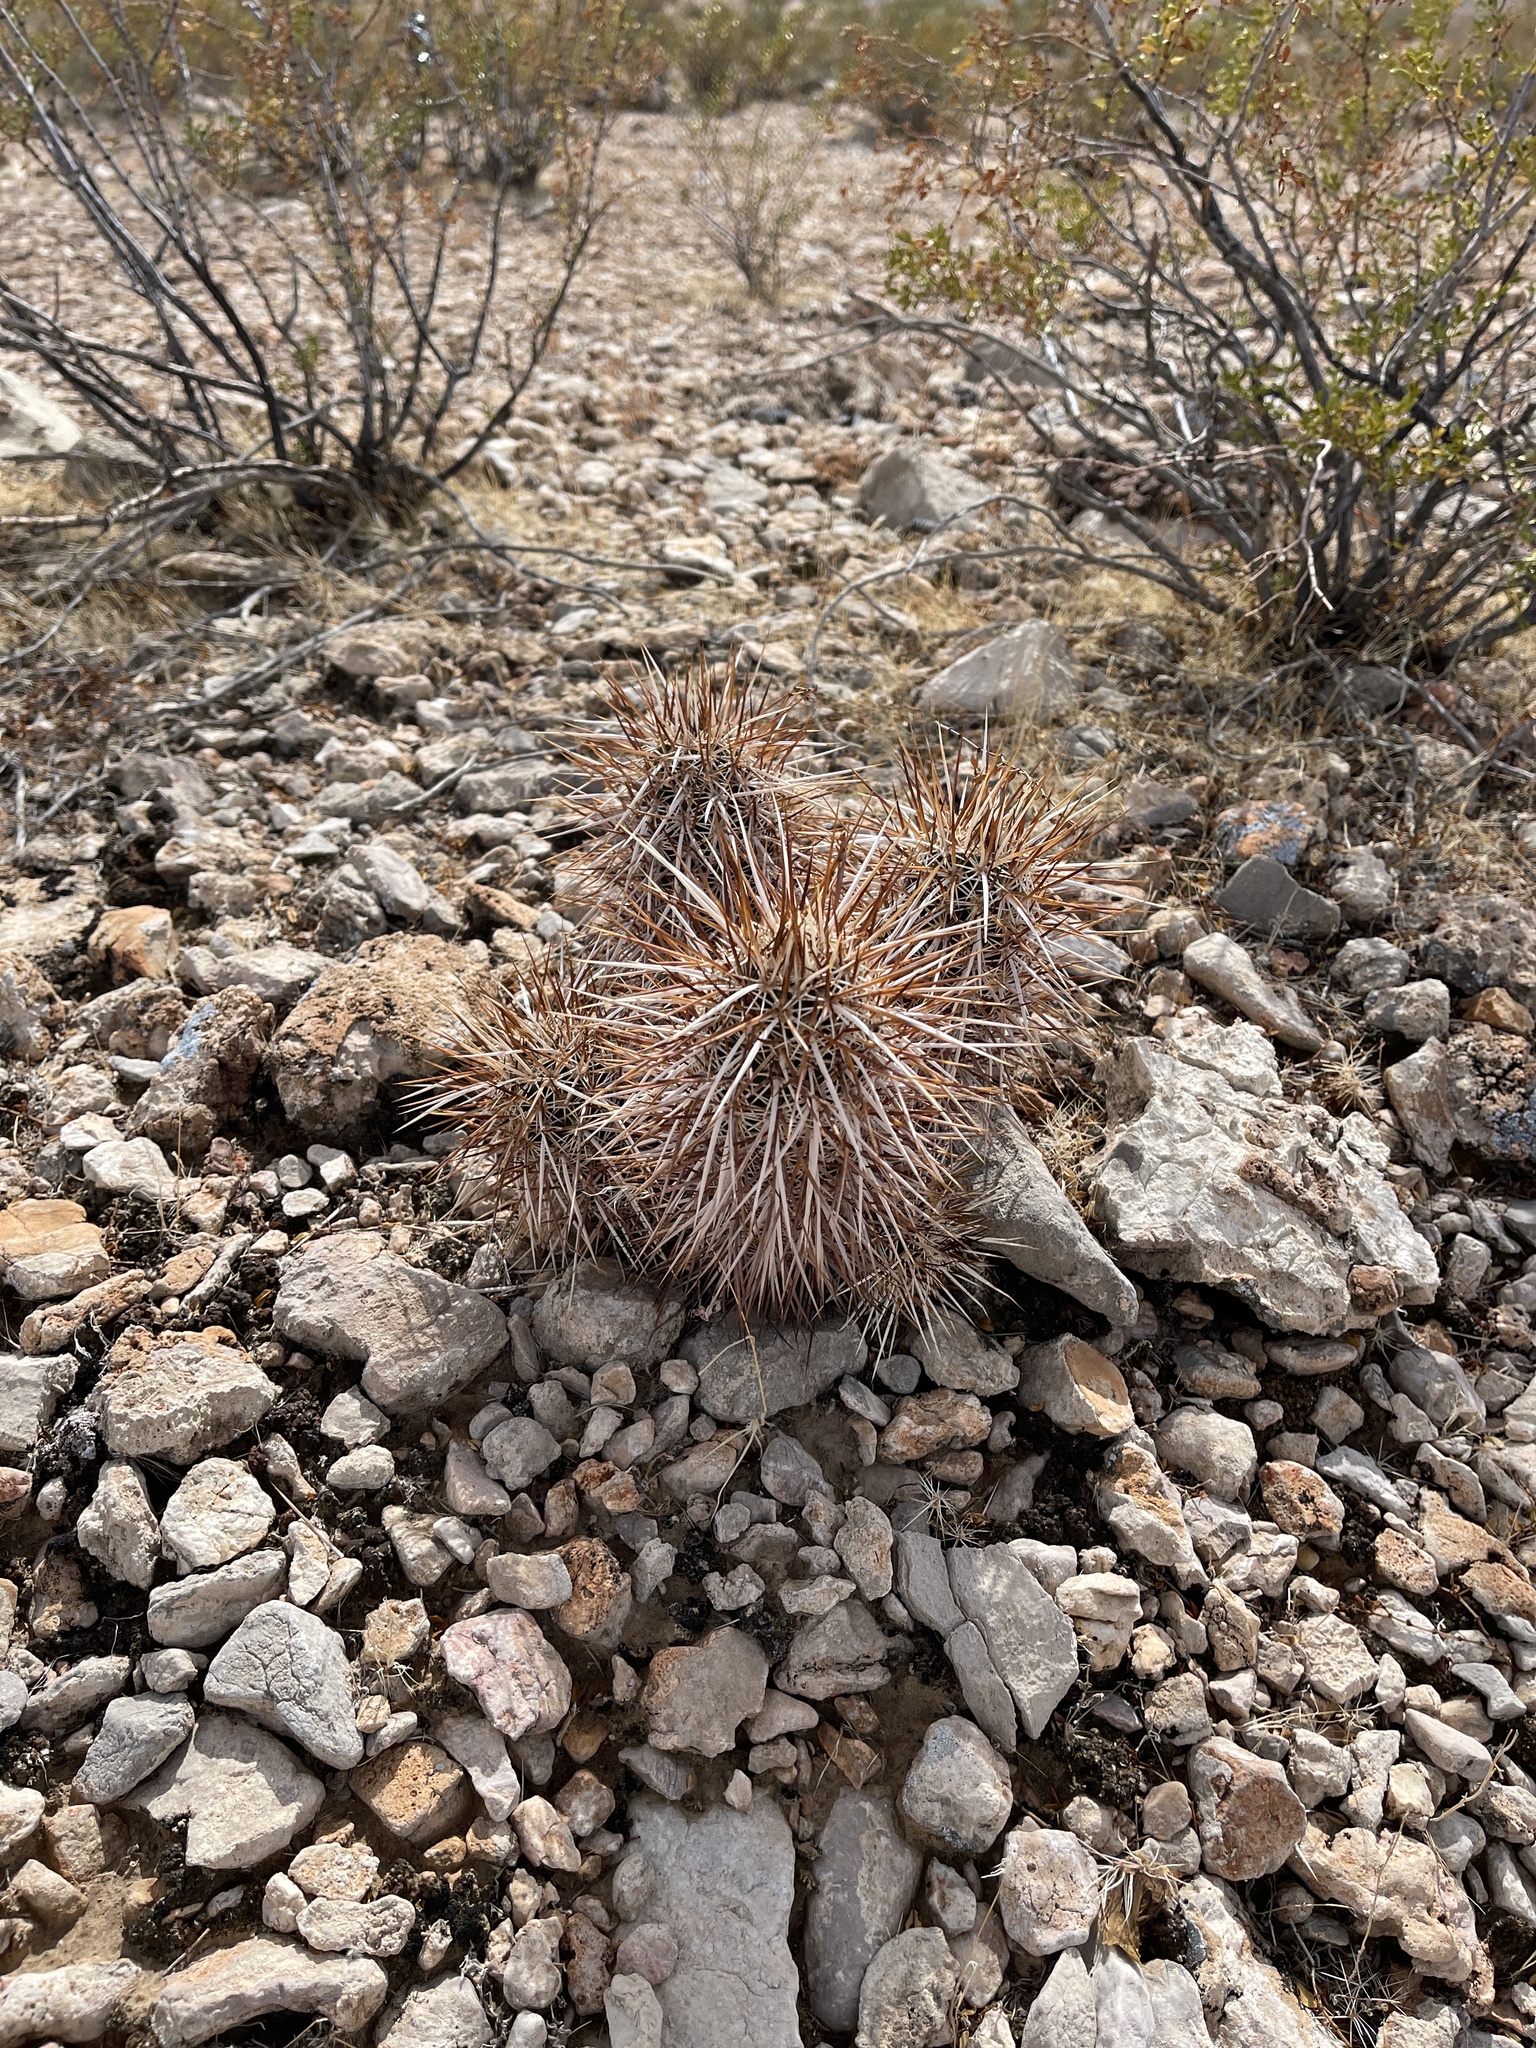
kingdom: Plantae
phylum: Tracheophyta
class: Magnoliopsida
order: Caryophyllales
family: Cactaceae
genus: Echinocereus
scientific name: Echinocereus engelmannii
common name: Engelmann's hedgehog cactus
